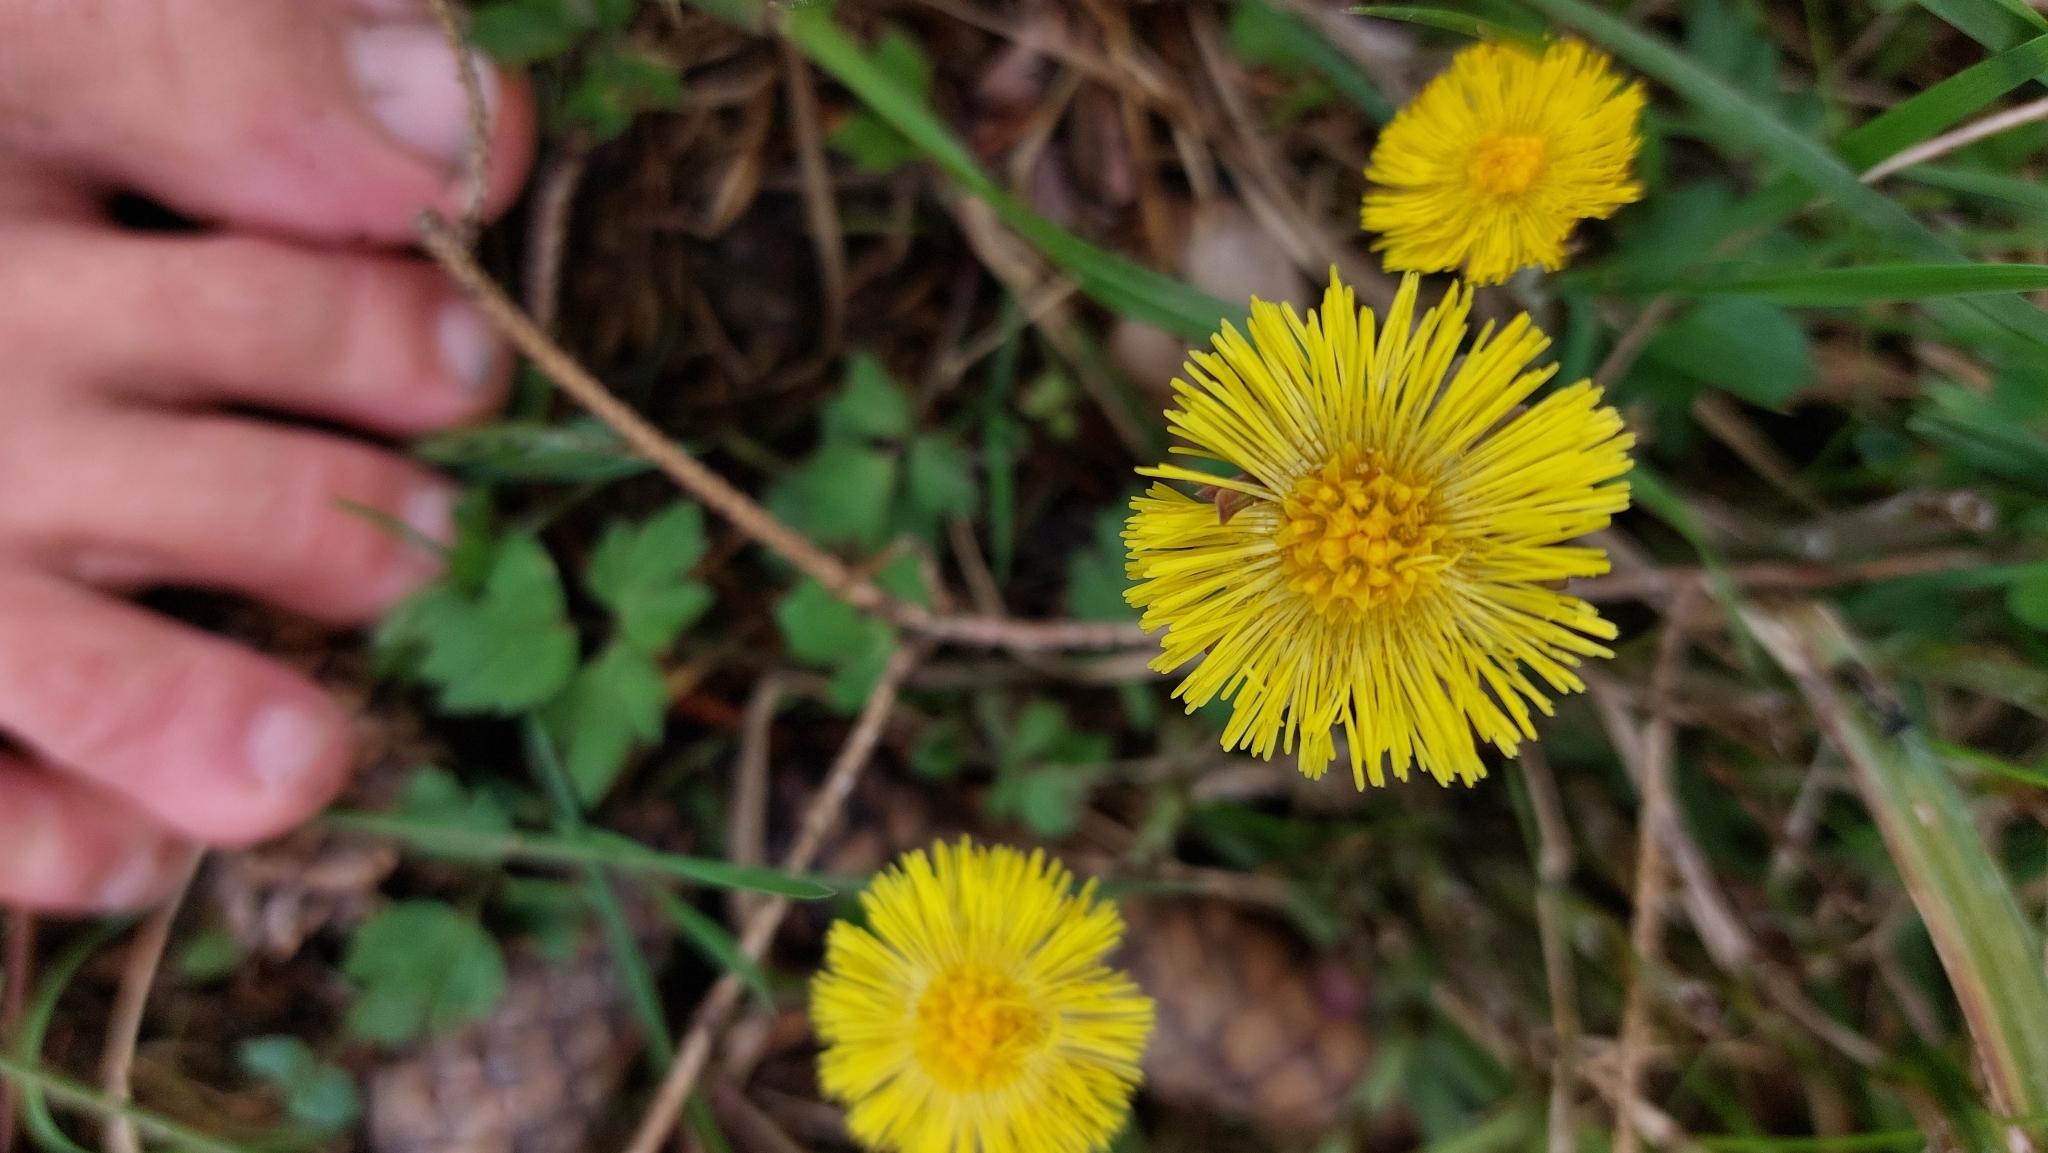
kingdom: Plantae
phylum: Tracheophyta
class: Magnoliopsida
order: Asterales
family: Asteraceae
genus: Tussilago
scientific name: Tussilago farfara
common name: Coltsfoot
